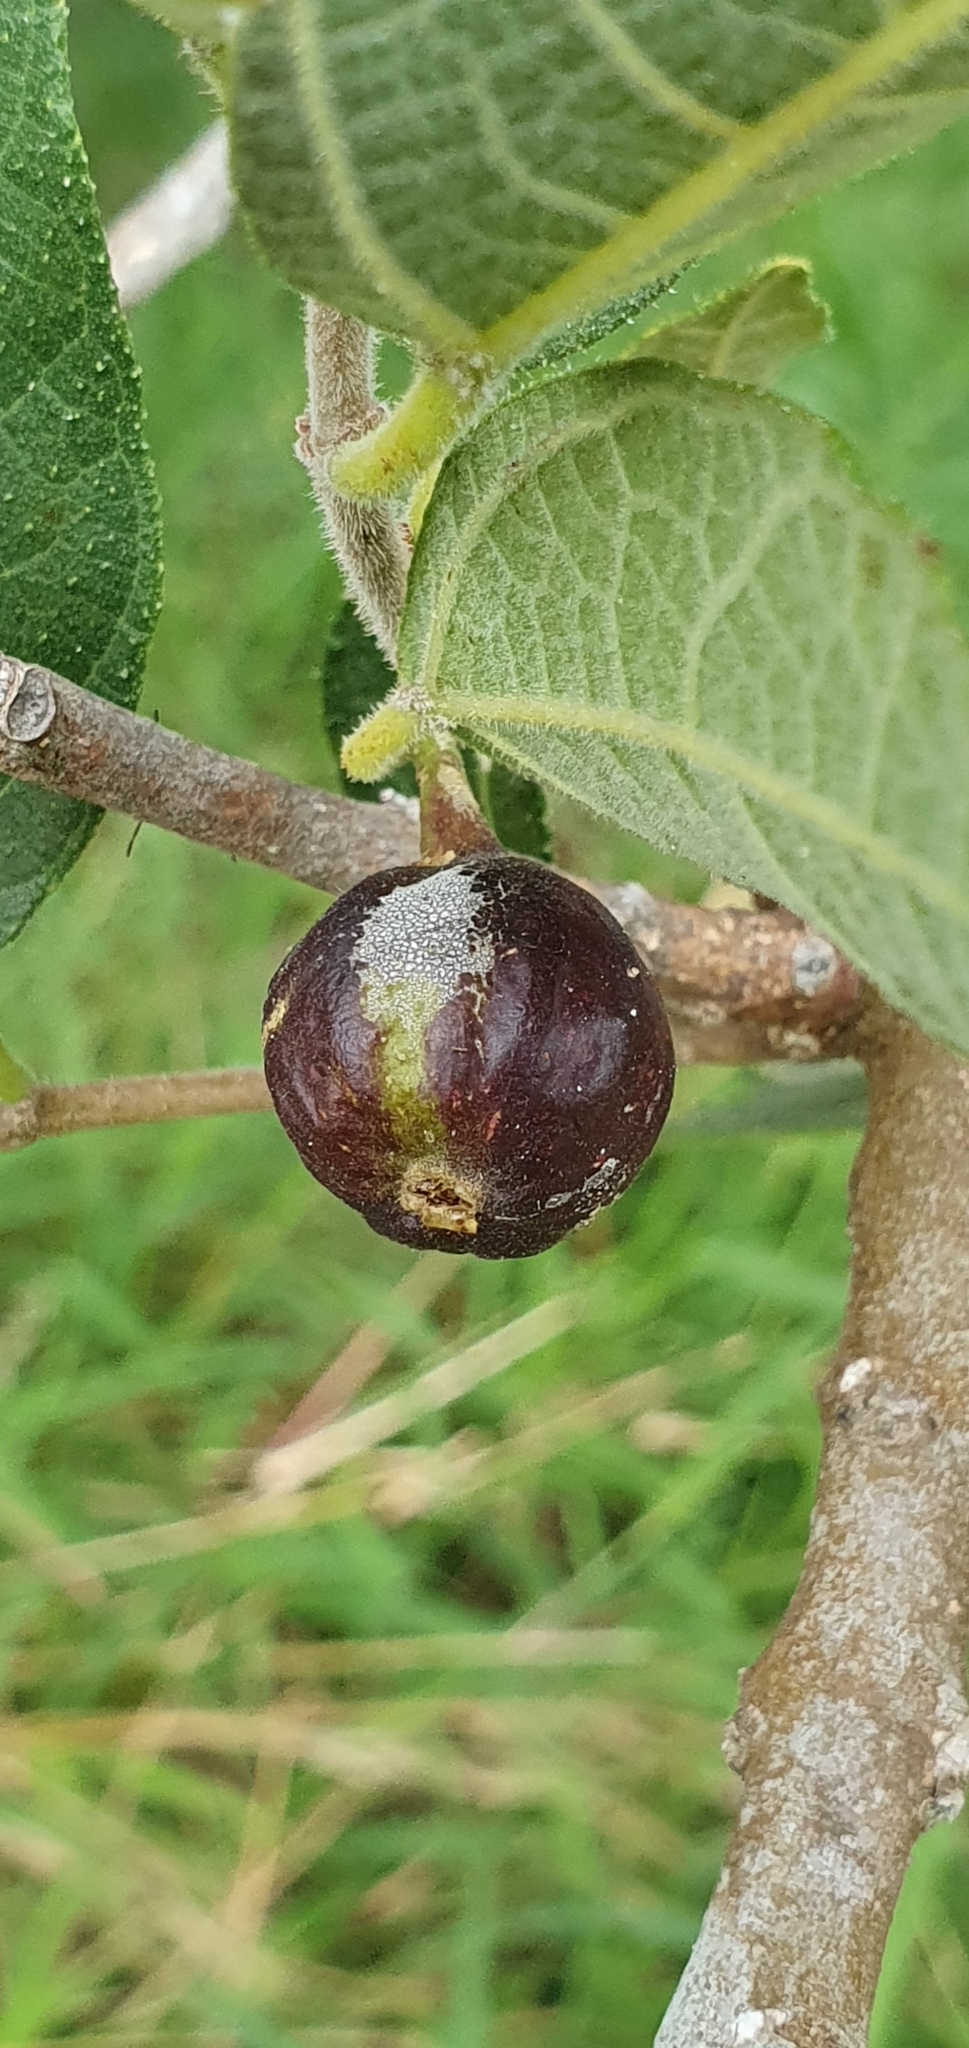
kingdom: Plantae
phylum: Tracheophyta
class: Magnoliopsida
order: Rosales
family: Moraceae
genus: Ficus
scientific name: Ficus opposita
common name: Figwood
